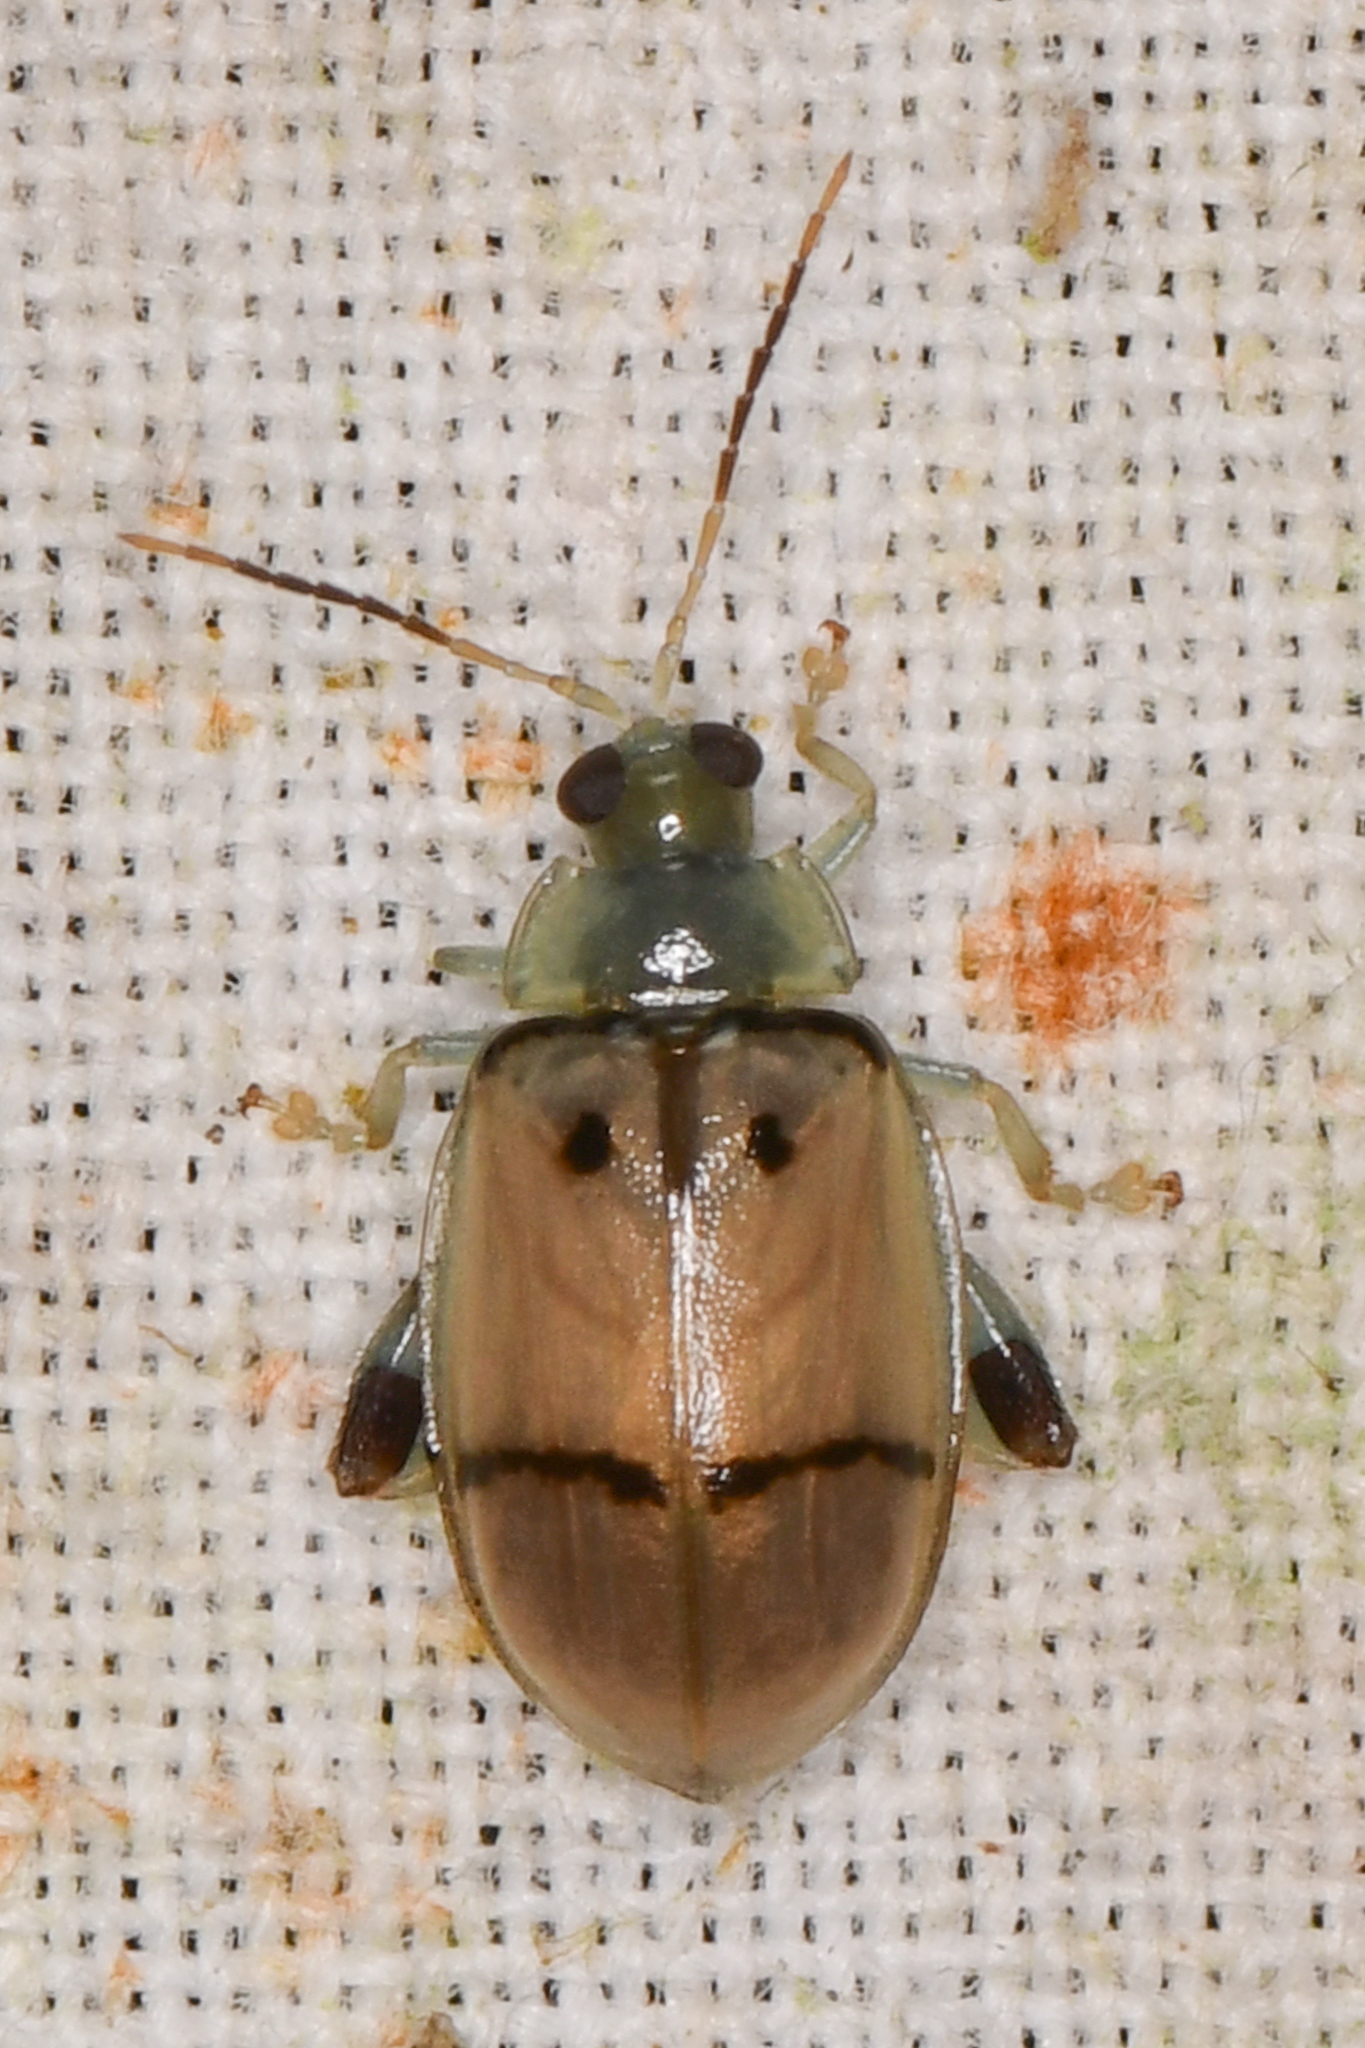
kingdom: Animalia
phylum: Arthropoda
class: Insecta
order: Coleoptera
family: Chrysomelidae
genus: Walterianella
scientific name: Walterianella
